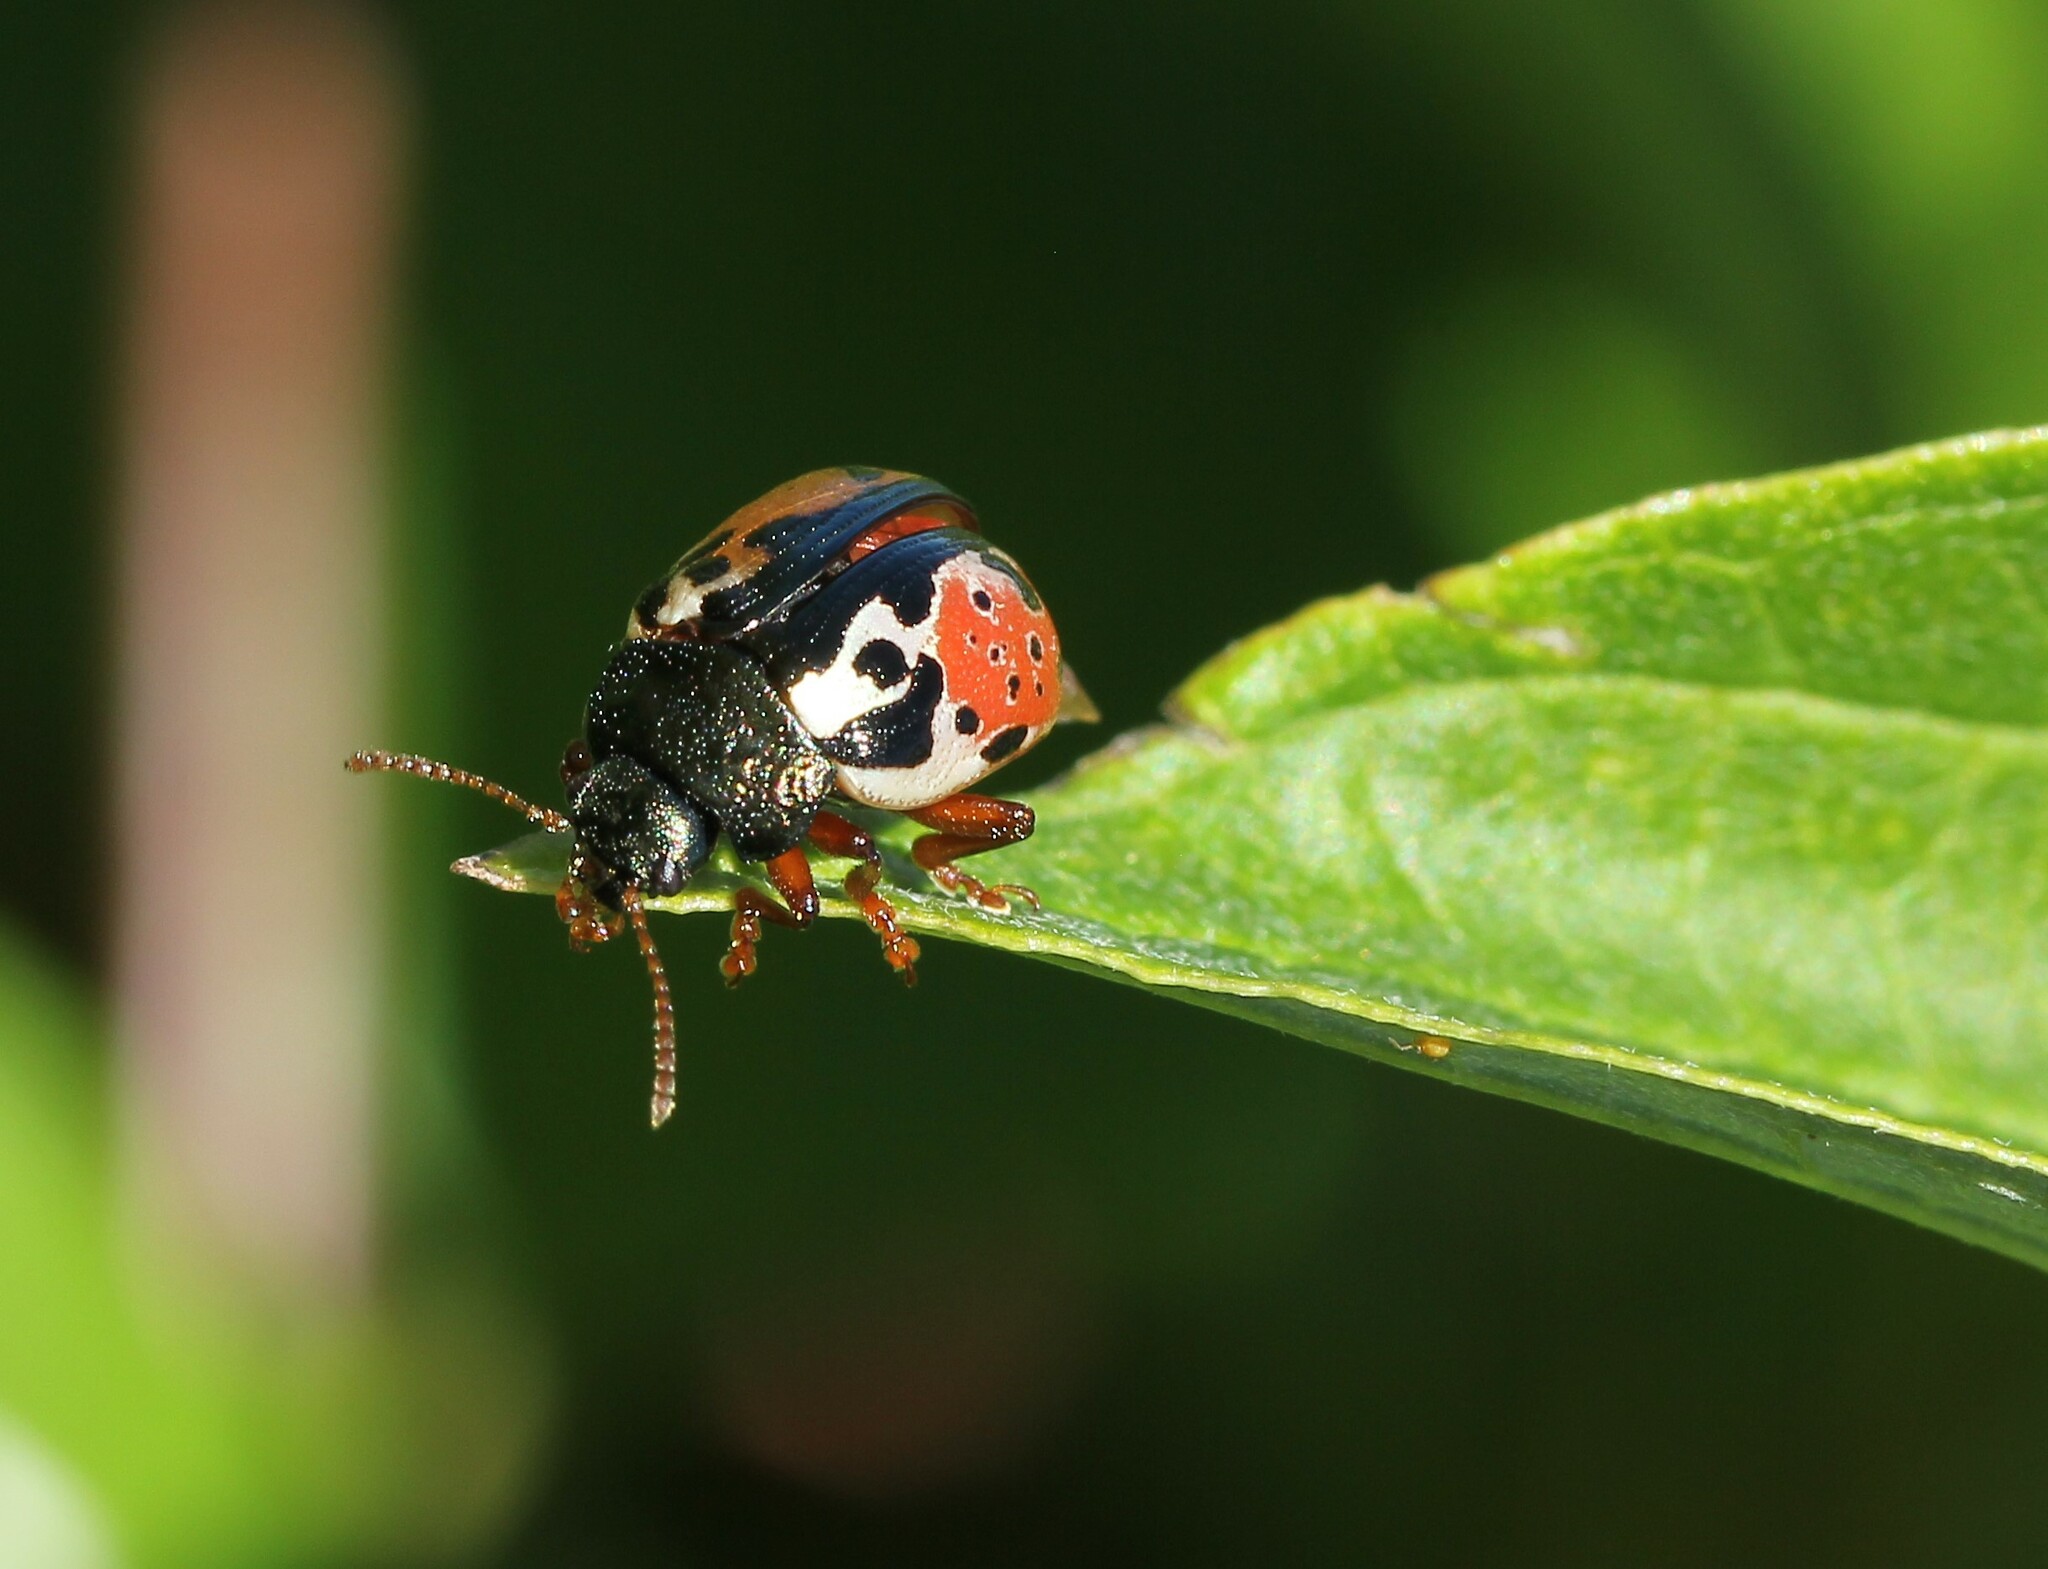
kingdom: Animalia
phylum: Arthropoda
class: Insecta
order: Coleoptera
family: Chrysomelidae
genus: Calligrapha
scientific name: Calligrapha rowena
